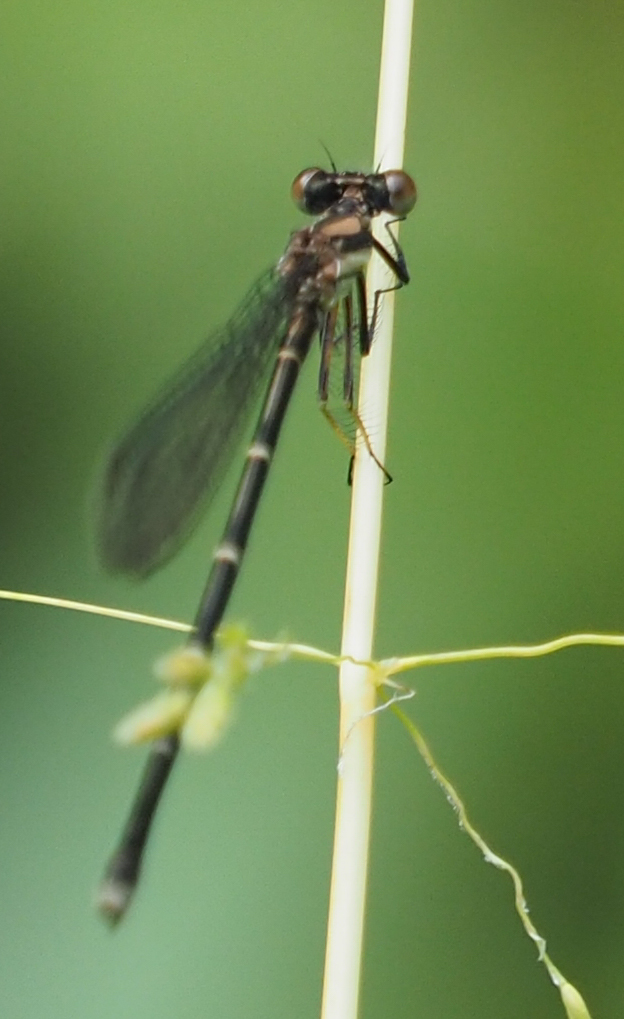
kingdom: Animalia
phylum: Arthropoda
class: Insecta
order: Odonata
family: Coenagrionidae
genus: Argia
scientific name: Argia tibialis
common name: Blue-tipped dancer
